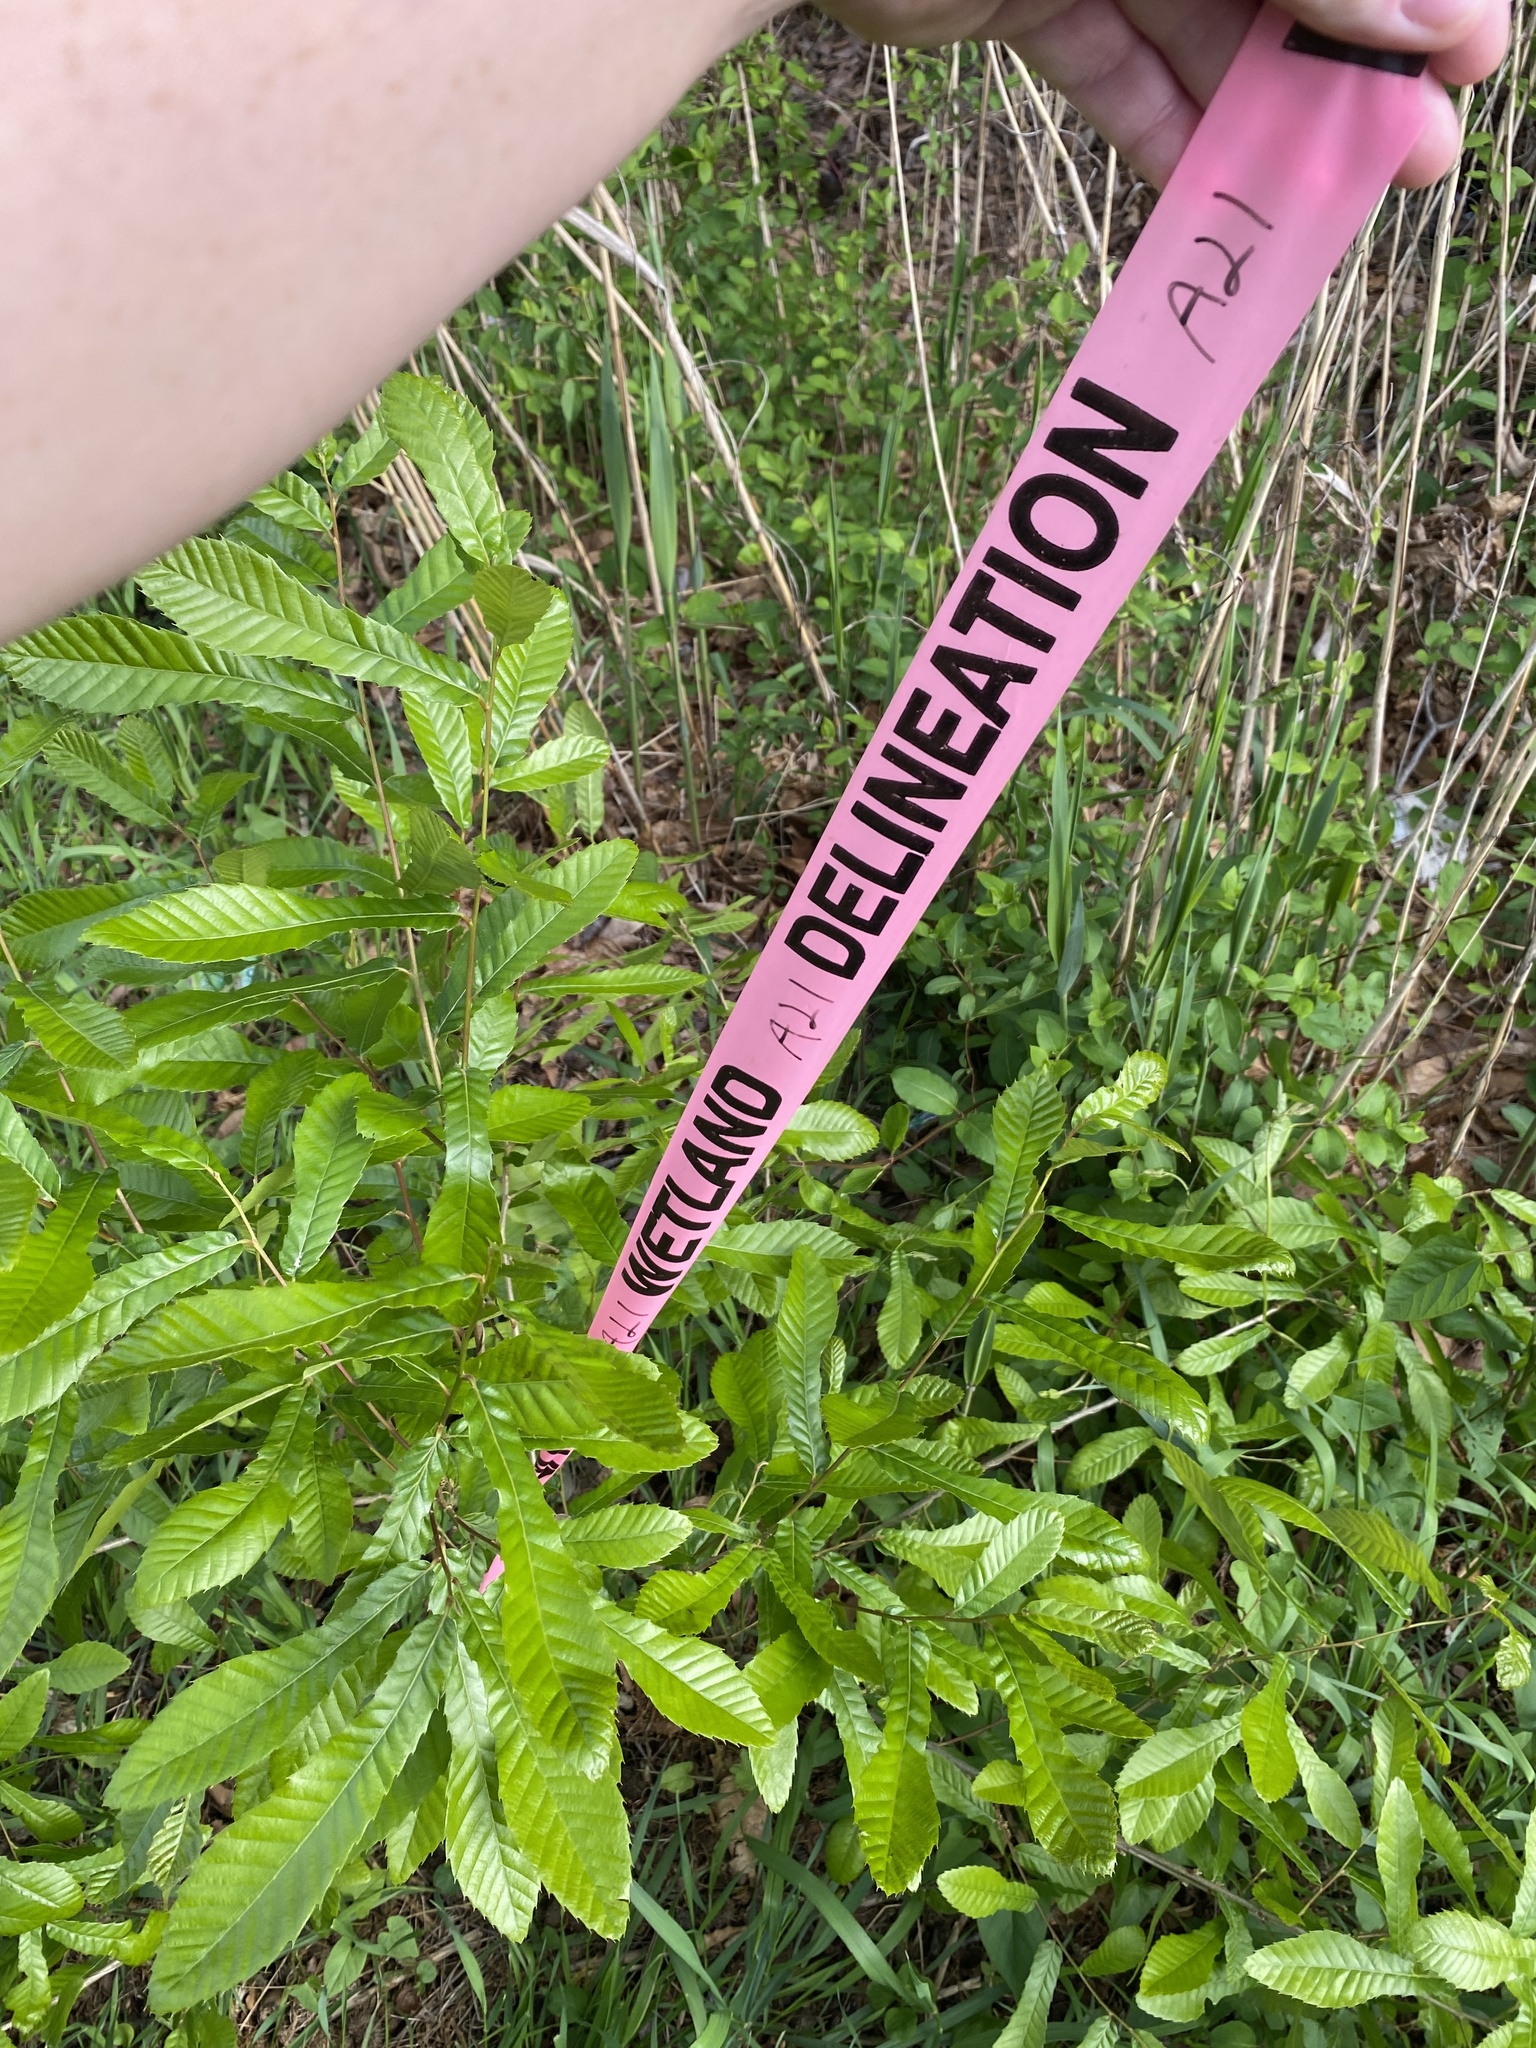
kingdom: Plantae
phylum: Tracheophyta
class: Magnoliopsida
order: Fagales
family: Fagaceae
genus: Quercus
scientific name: Quercus acutissima
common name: Sawtooth oak
